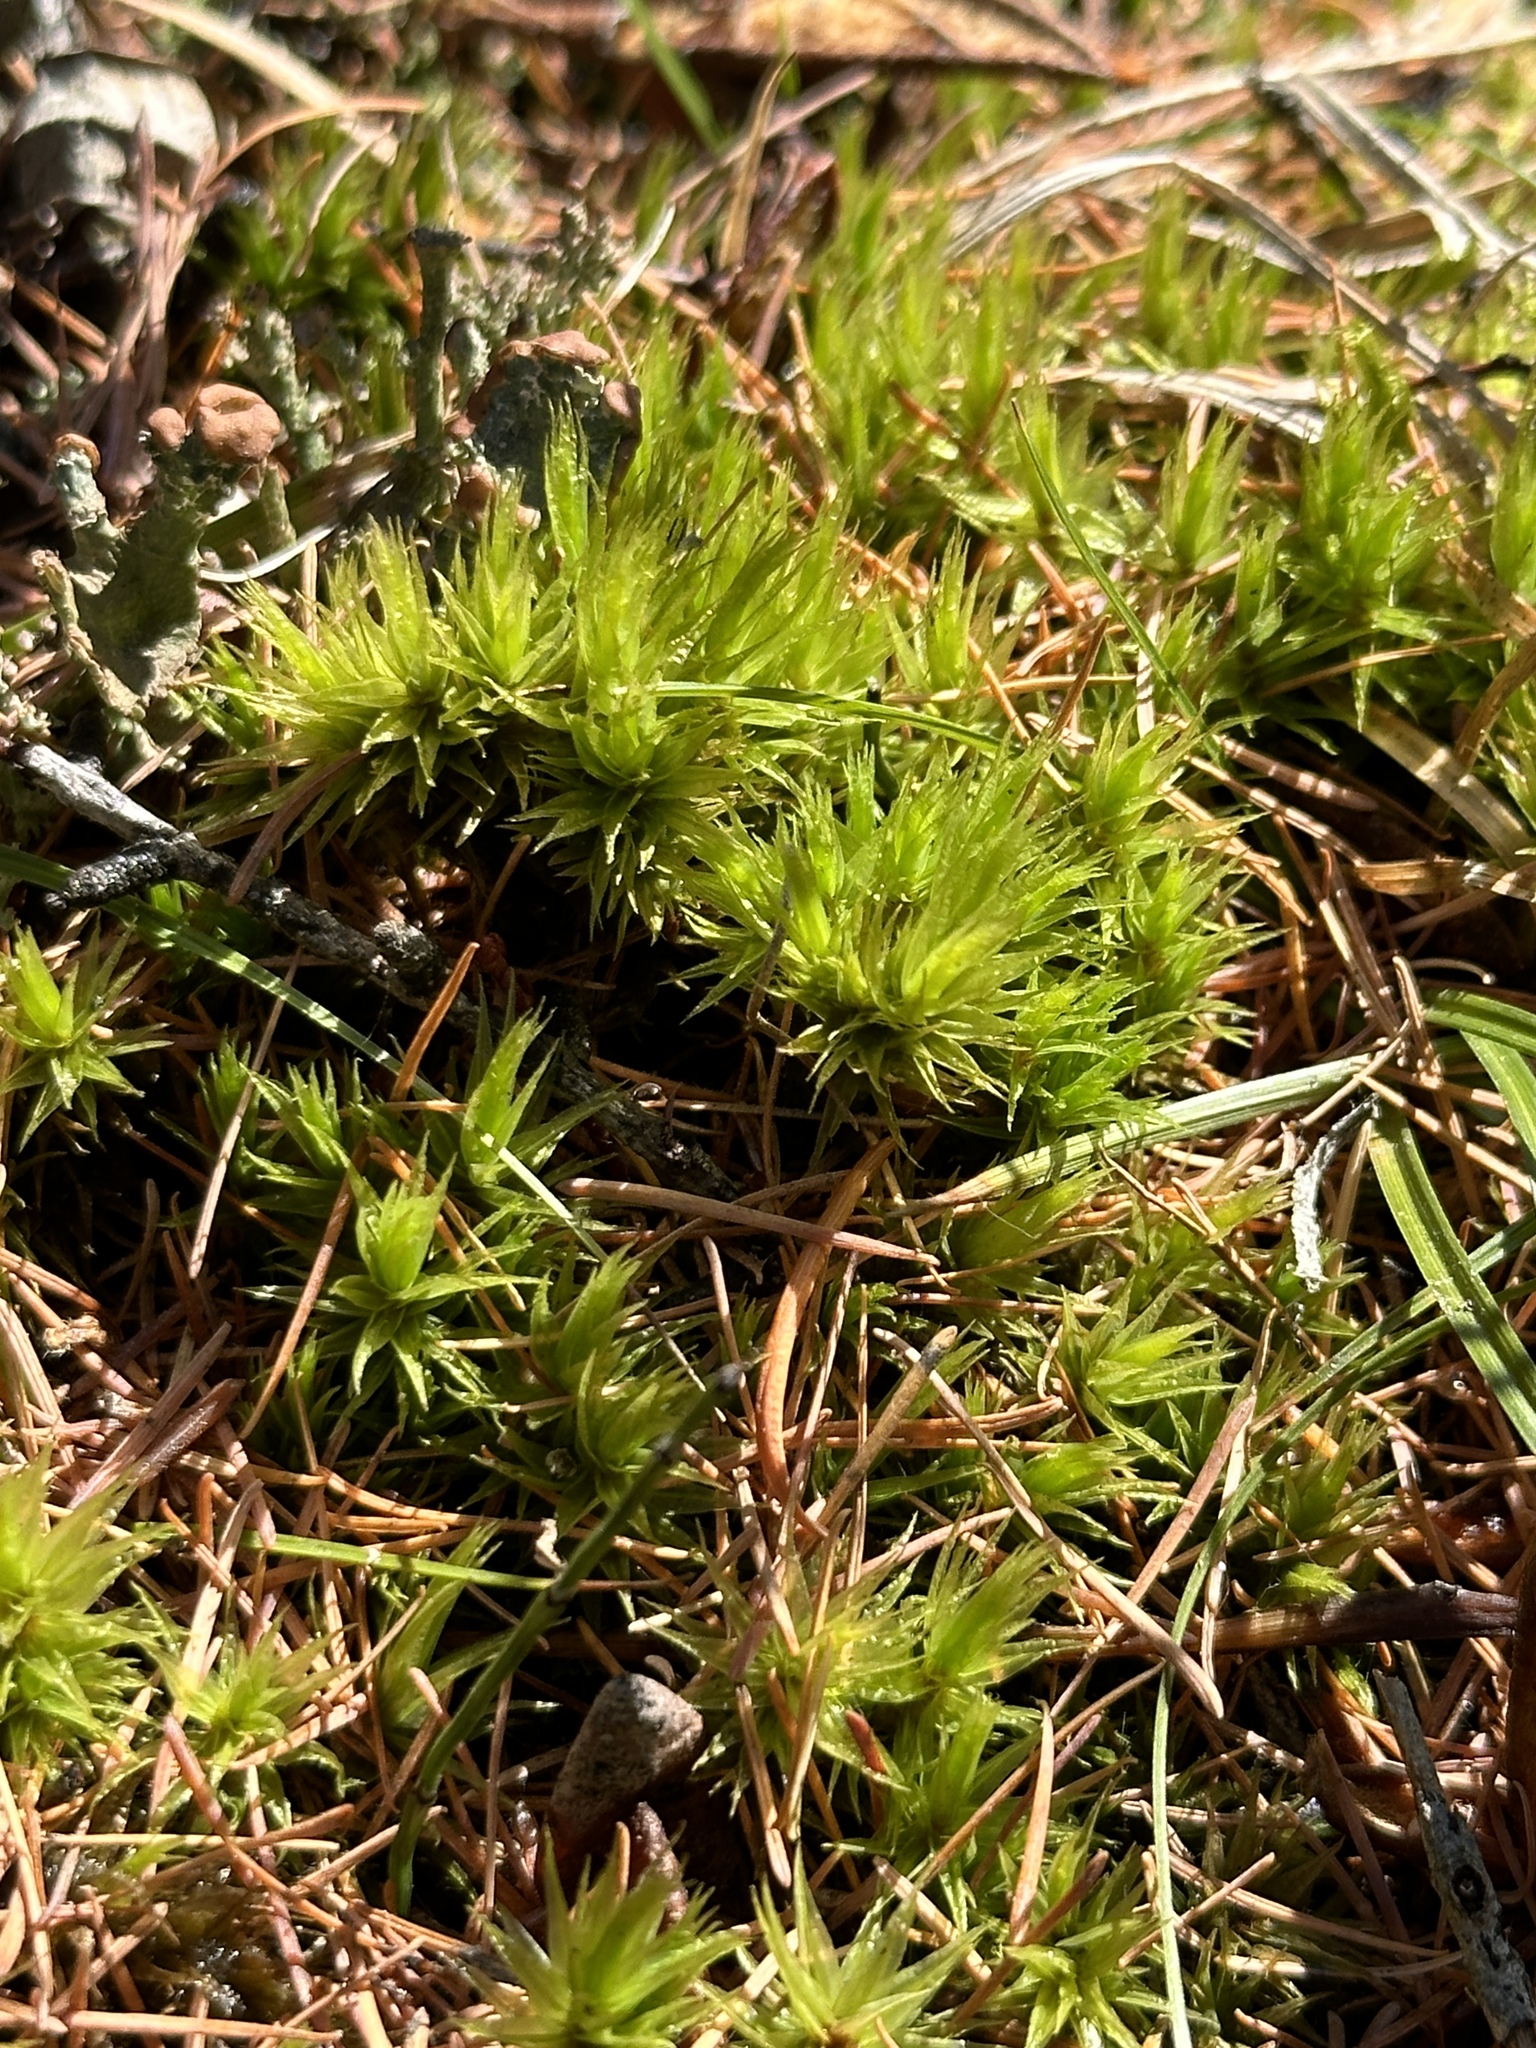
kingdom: Plantae
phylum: Bryophyta
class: Bryopsida
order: Dicranales
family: Dicranaceae
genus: Dicranum
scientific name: Dicranum polysetum
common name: Rugose fork-moss
